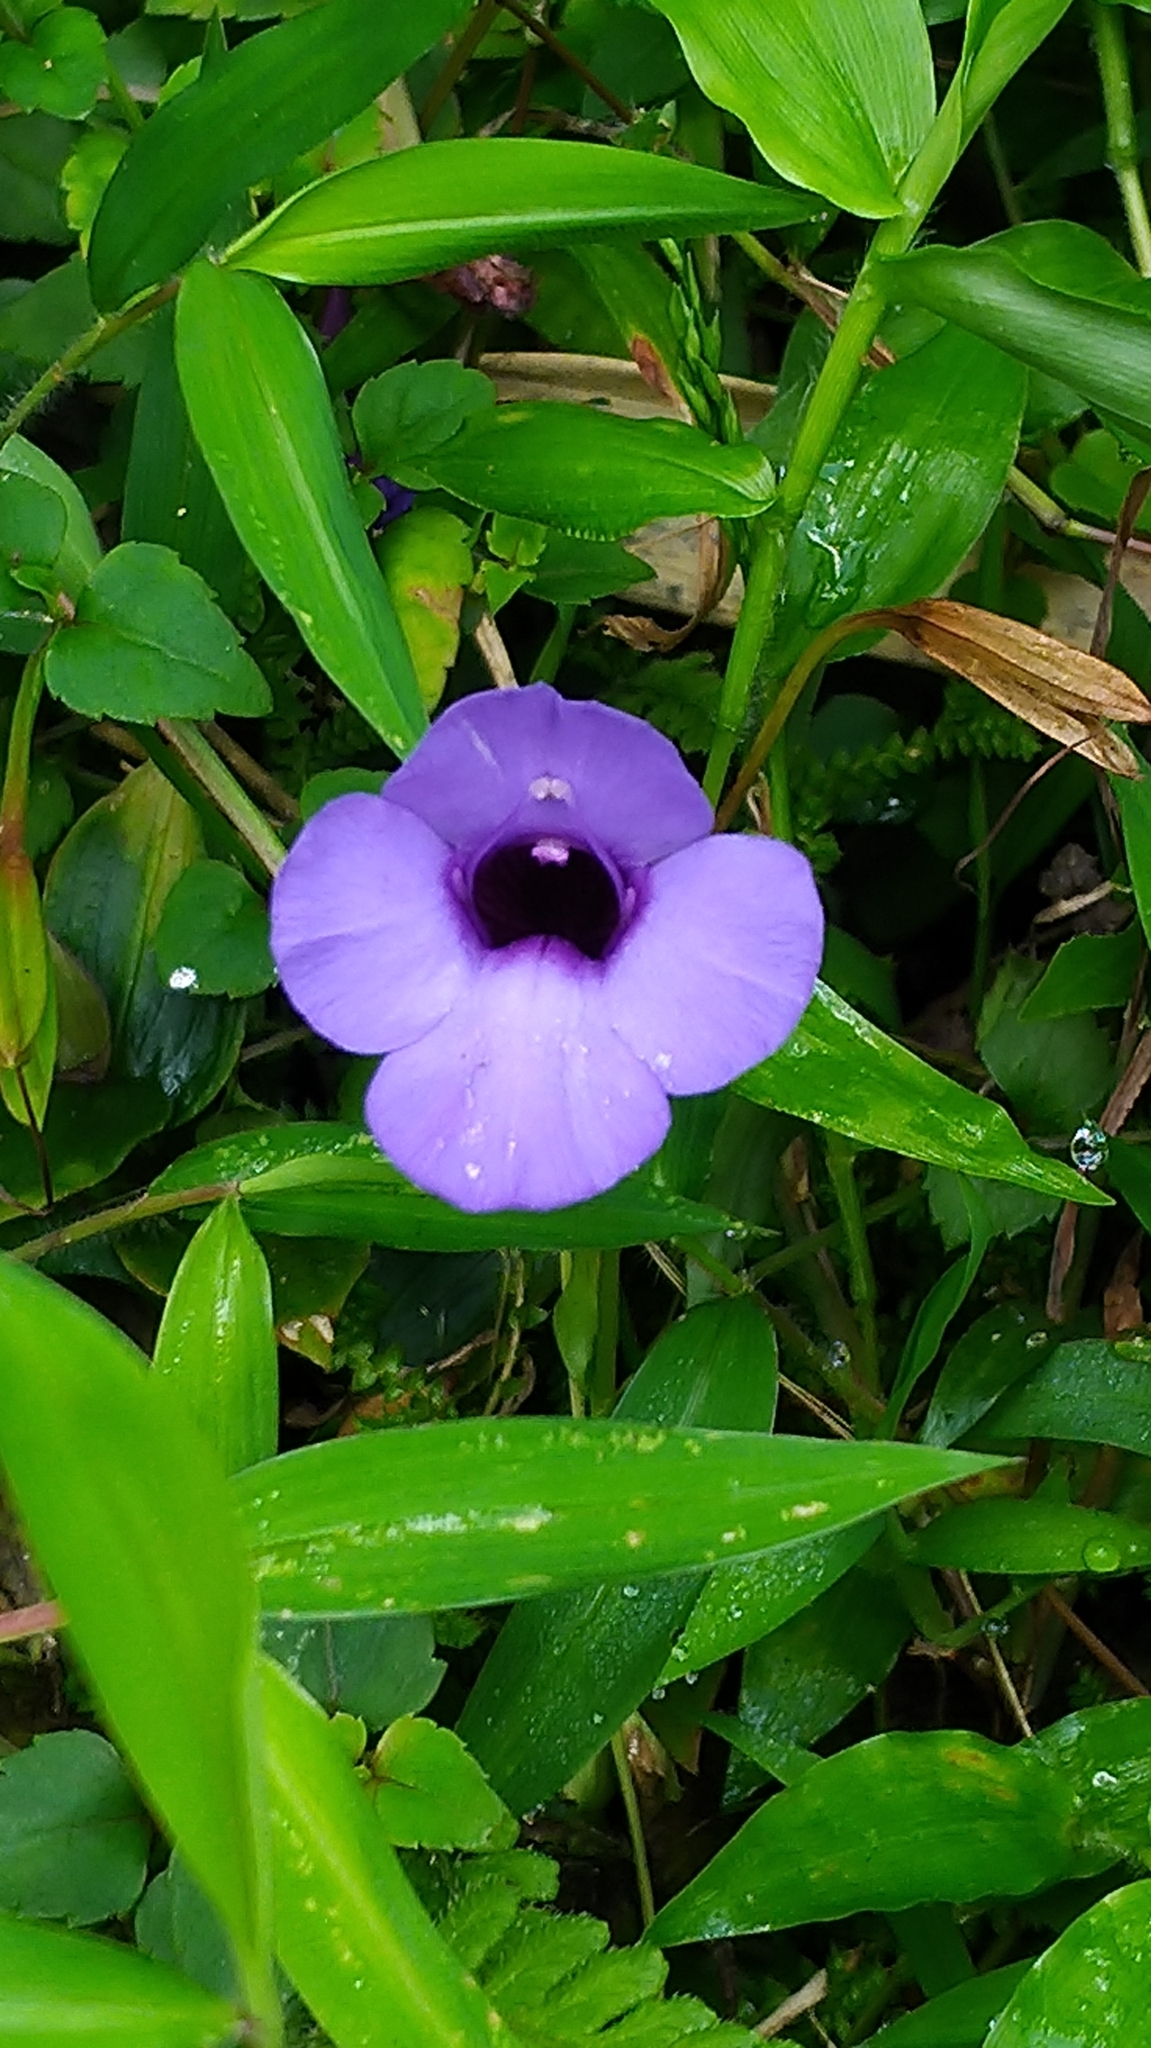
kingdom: Plantae
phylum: Tracheophyta
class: Magnoliopsida
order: Lamiales
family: Linderniaceae
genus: Torenia
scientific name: Torenia concolor
